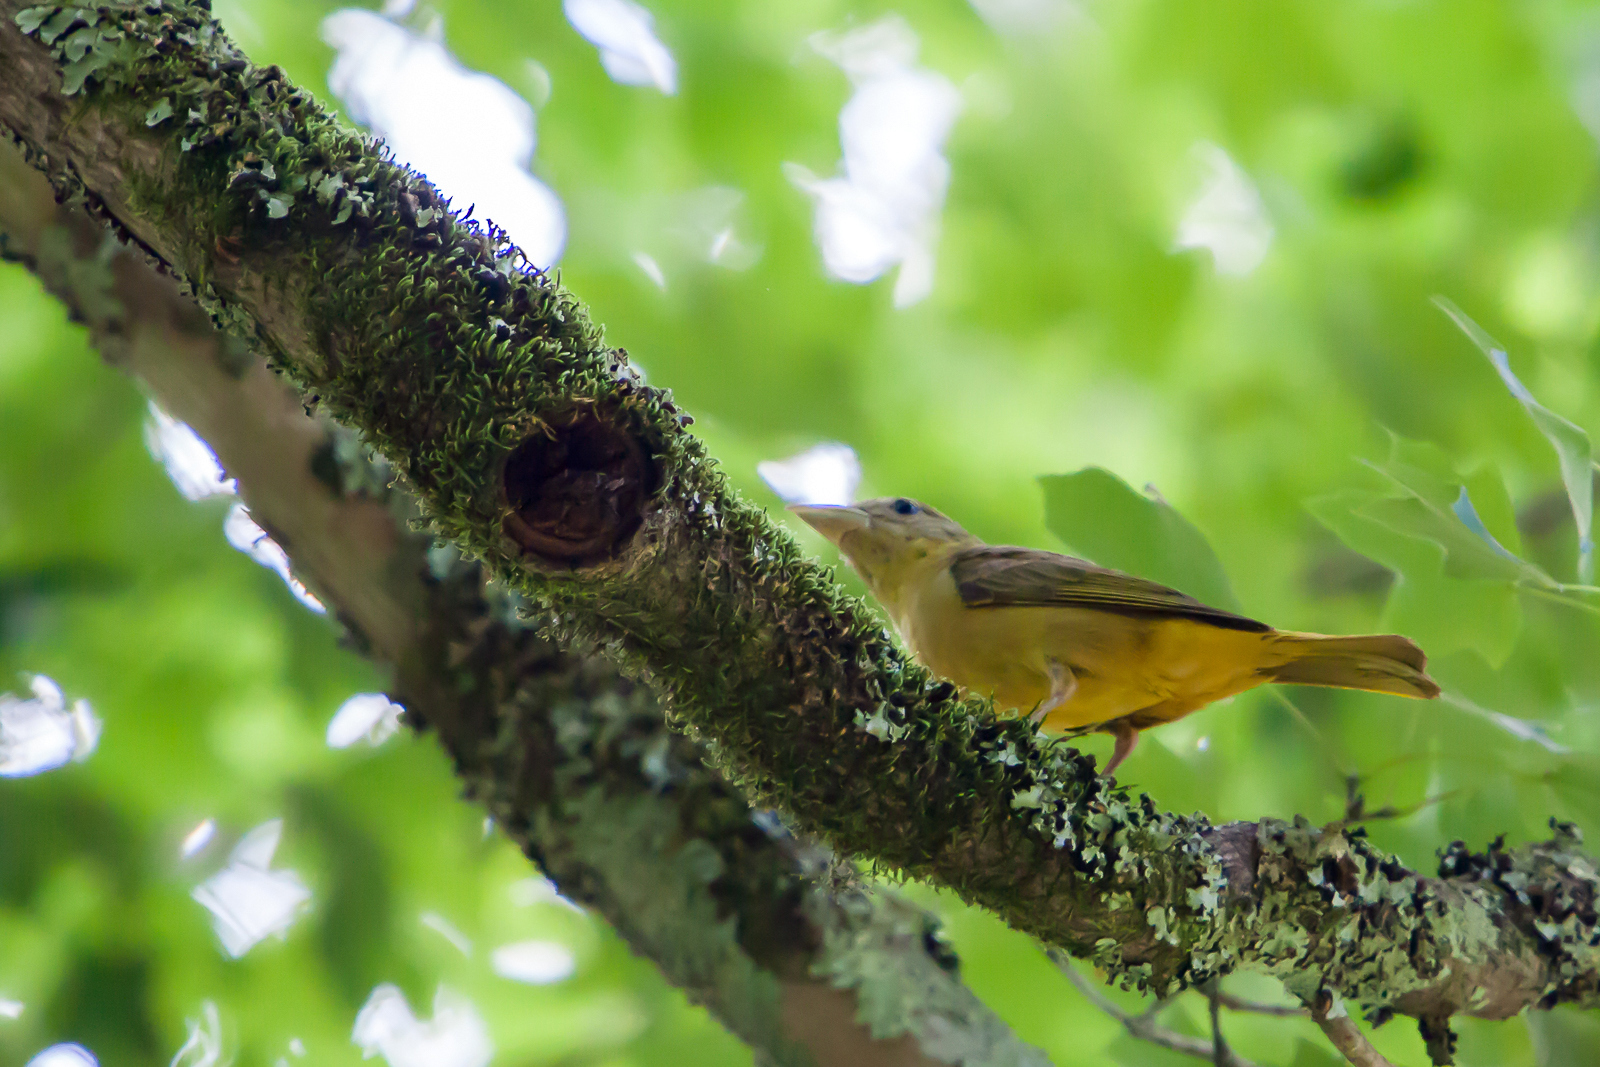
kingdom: Animalia
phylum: Chordata
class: Aves
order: Passeriformes
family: Cardinalidae
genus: Piranga
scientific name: Piranga rubra
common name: Summer tanager
